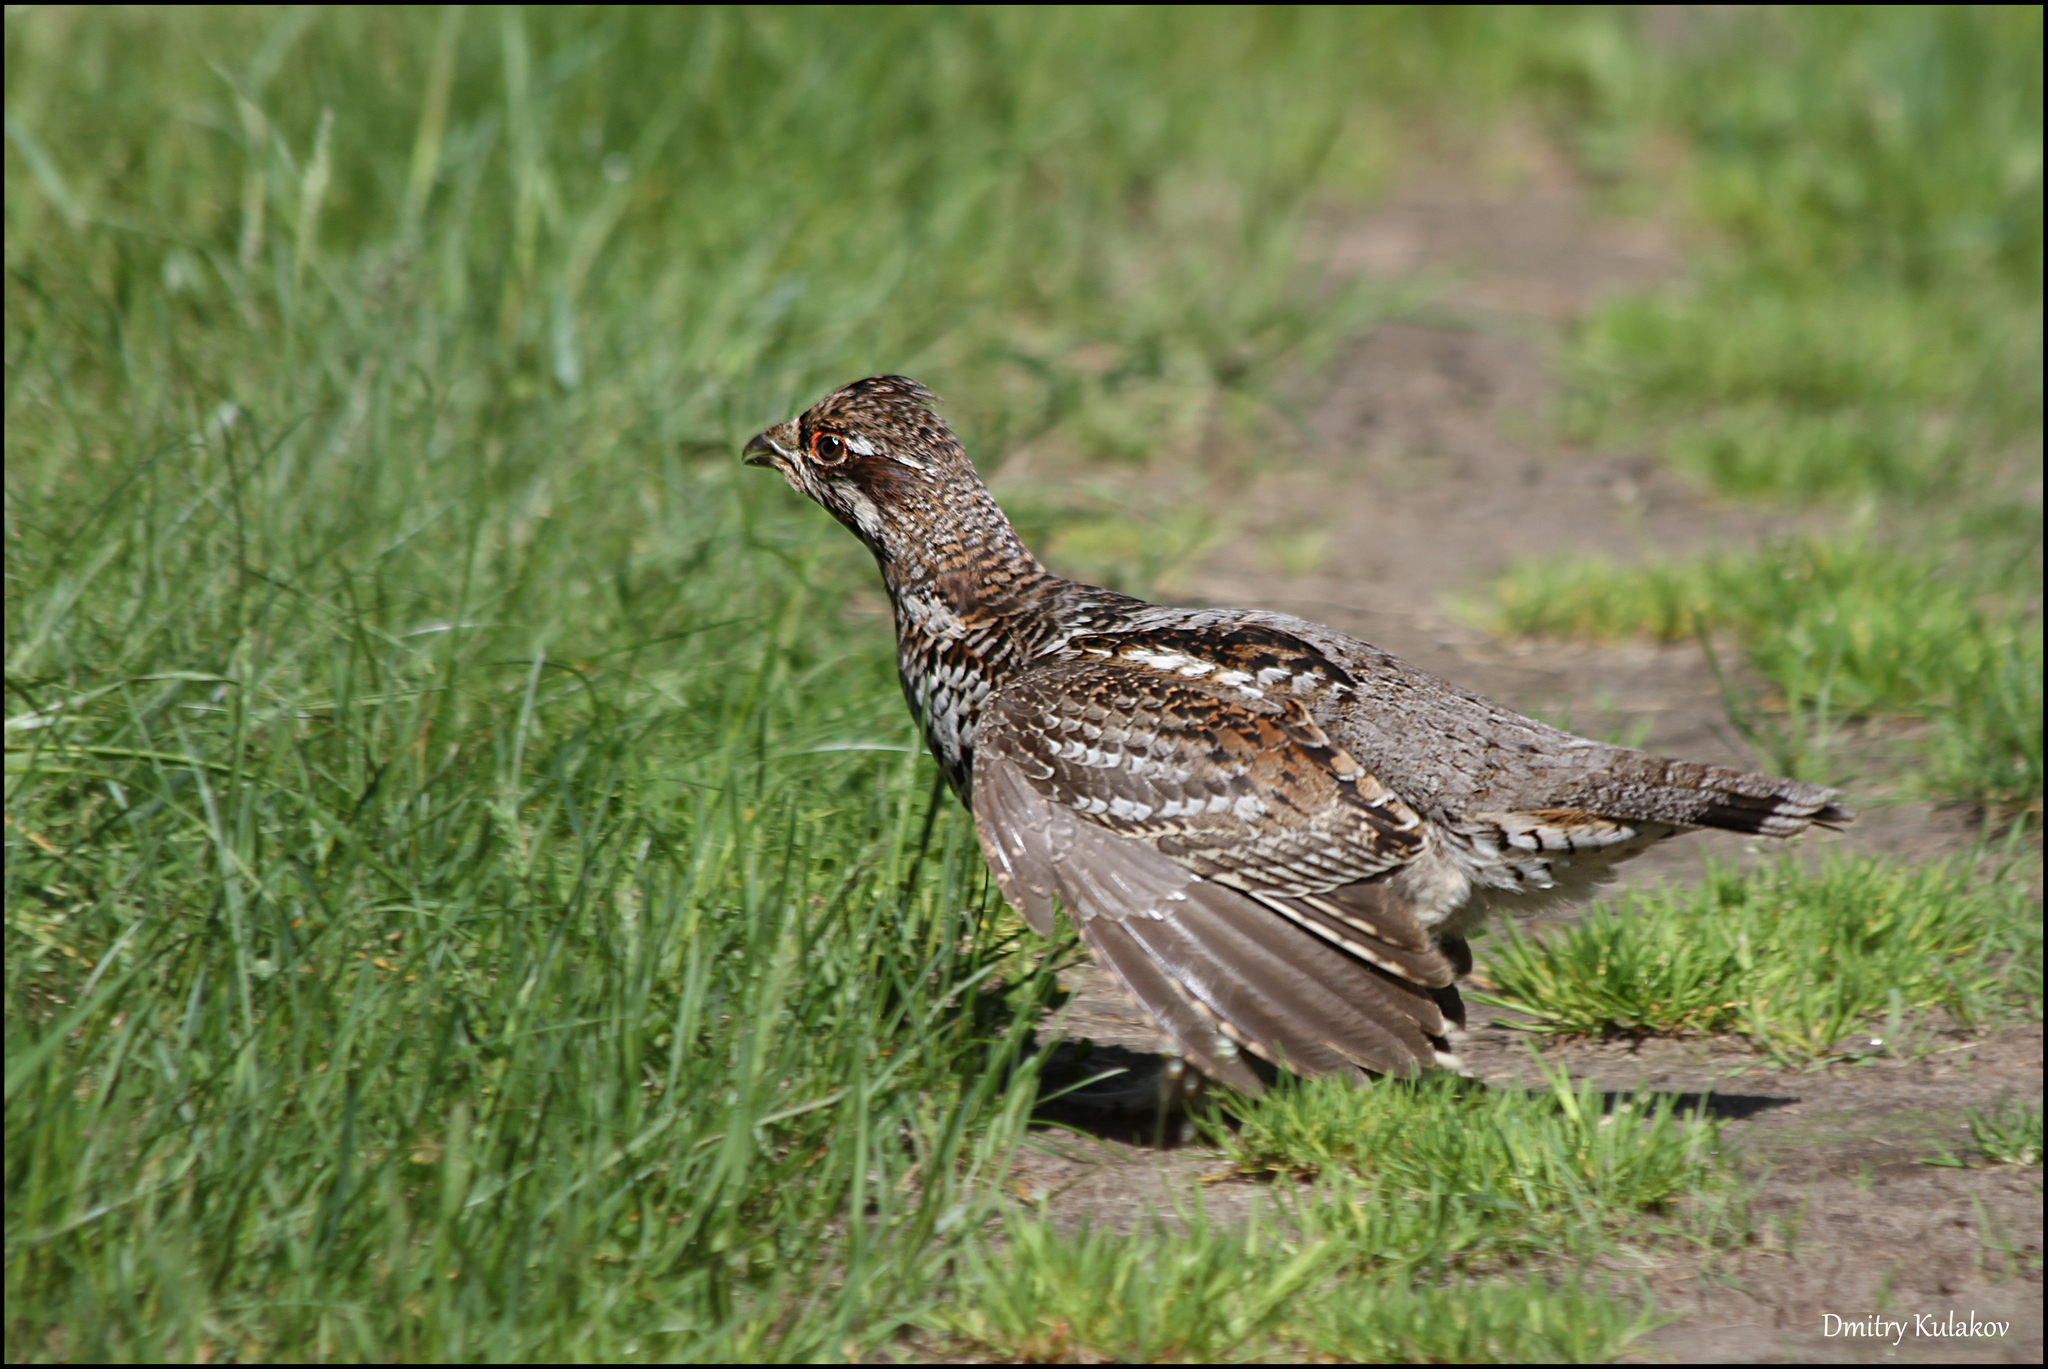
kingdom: Animalia
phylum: Chordata
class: Aves
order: Galliformes
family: Phasianidae
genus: Tetrastes
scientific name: Tetrastes bonasia
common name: Hazel grouse
